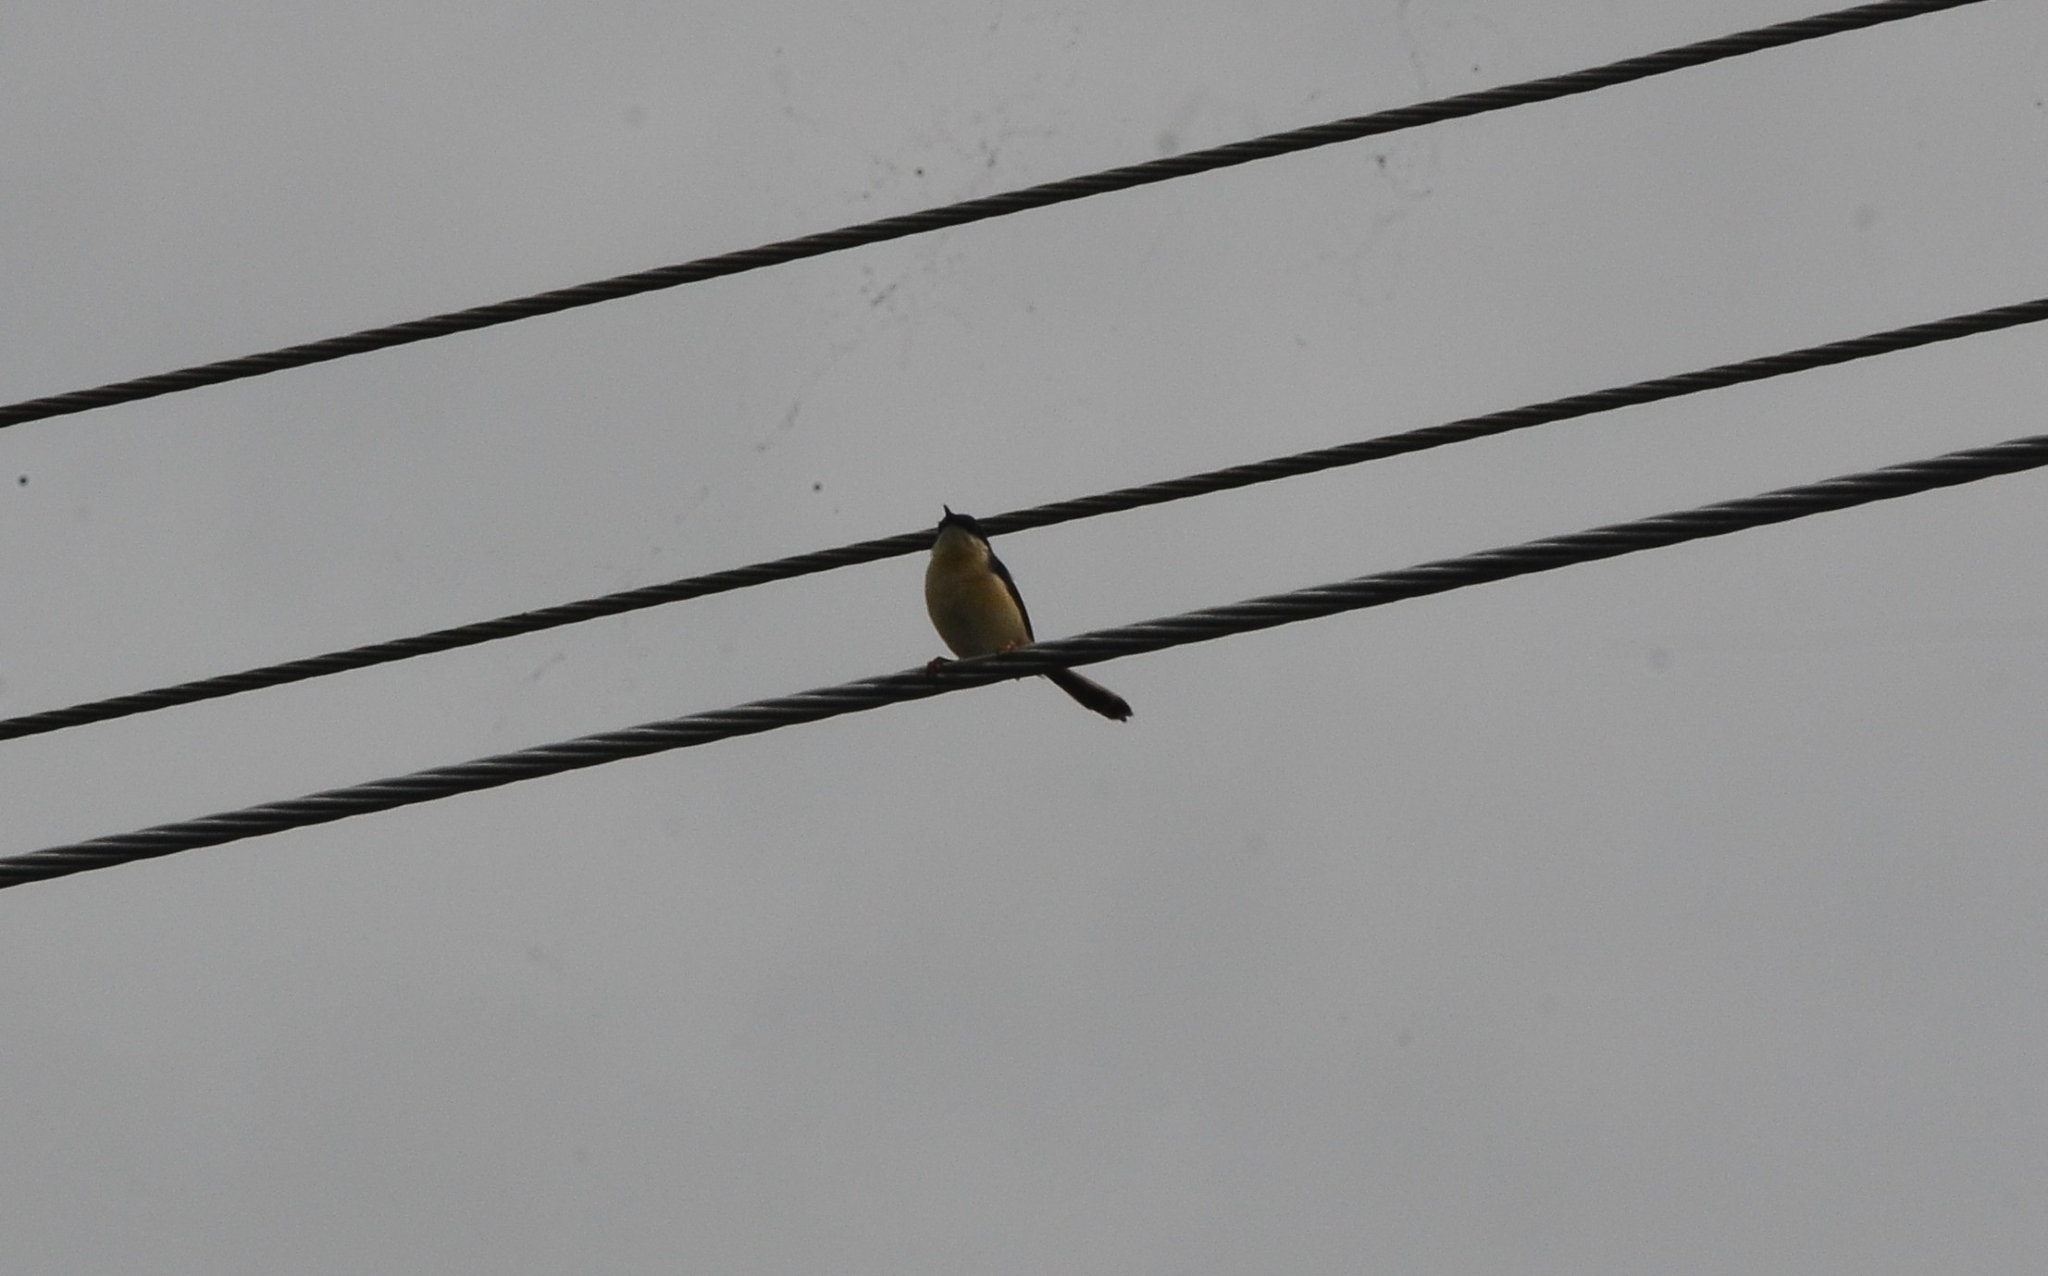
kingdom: Animalia
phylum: Chordata
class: Aves
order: Passeriformes
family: Cisticolidae
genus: Prinia
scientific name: Prinia socialis
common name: Ashy prinia
